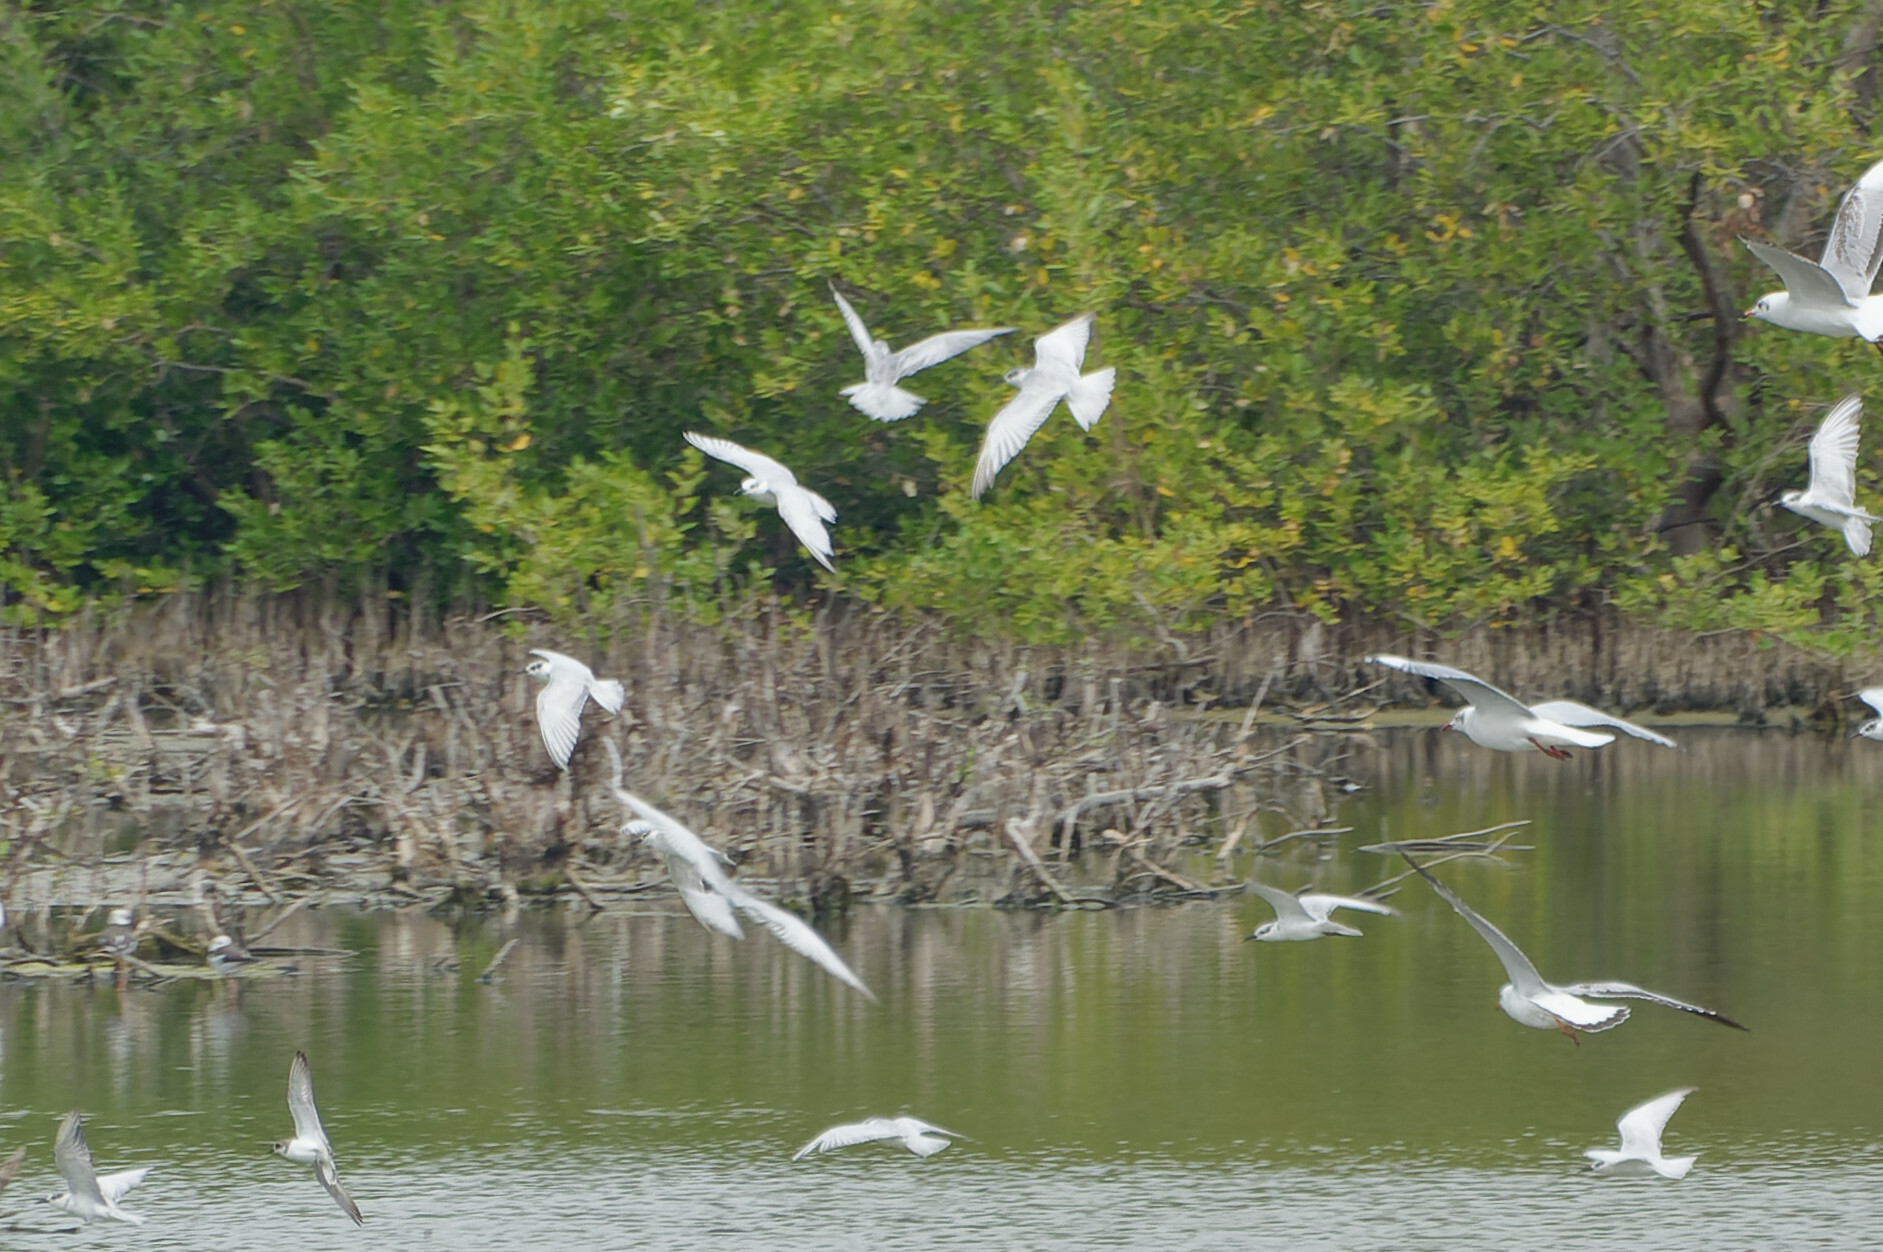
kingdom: Animalia
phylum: Chordata
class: Aves
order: Charadriiformes
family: Laridae
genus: Chlidonias
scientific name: Chlidonias hybrida
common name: Whiskered tern
